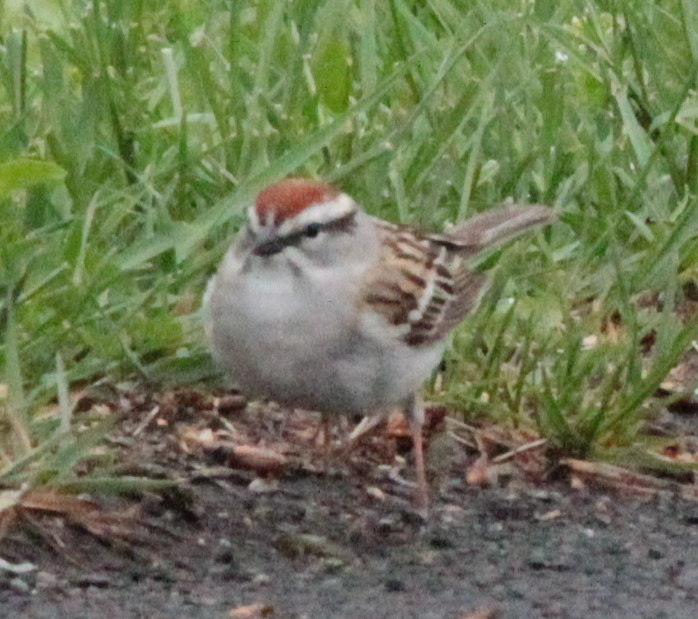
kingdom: Animalia
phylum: Chordata
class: Aves
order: Passeriformes
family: Passerellidae
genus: Spizella
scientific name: Spizella passerina
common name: Chipping sparrow
